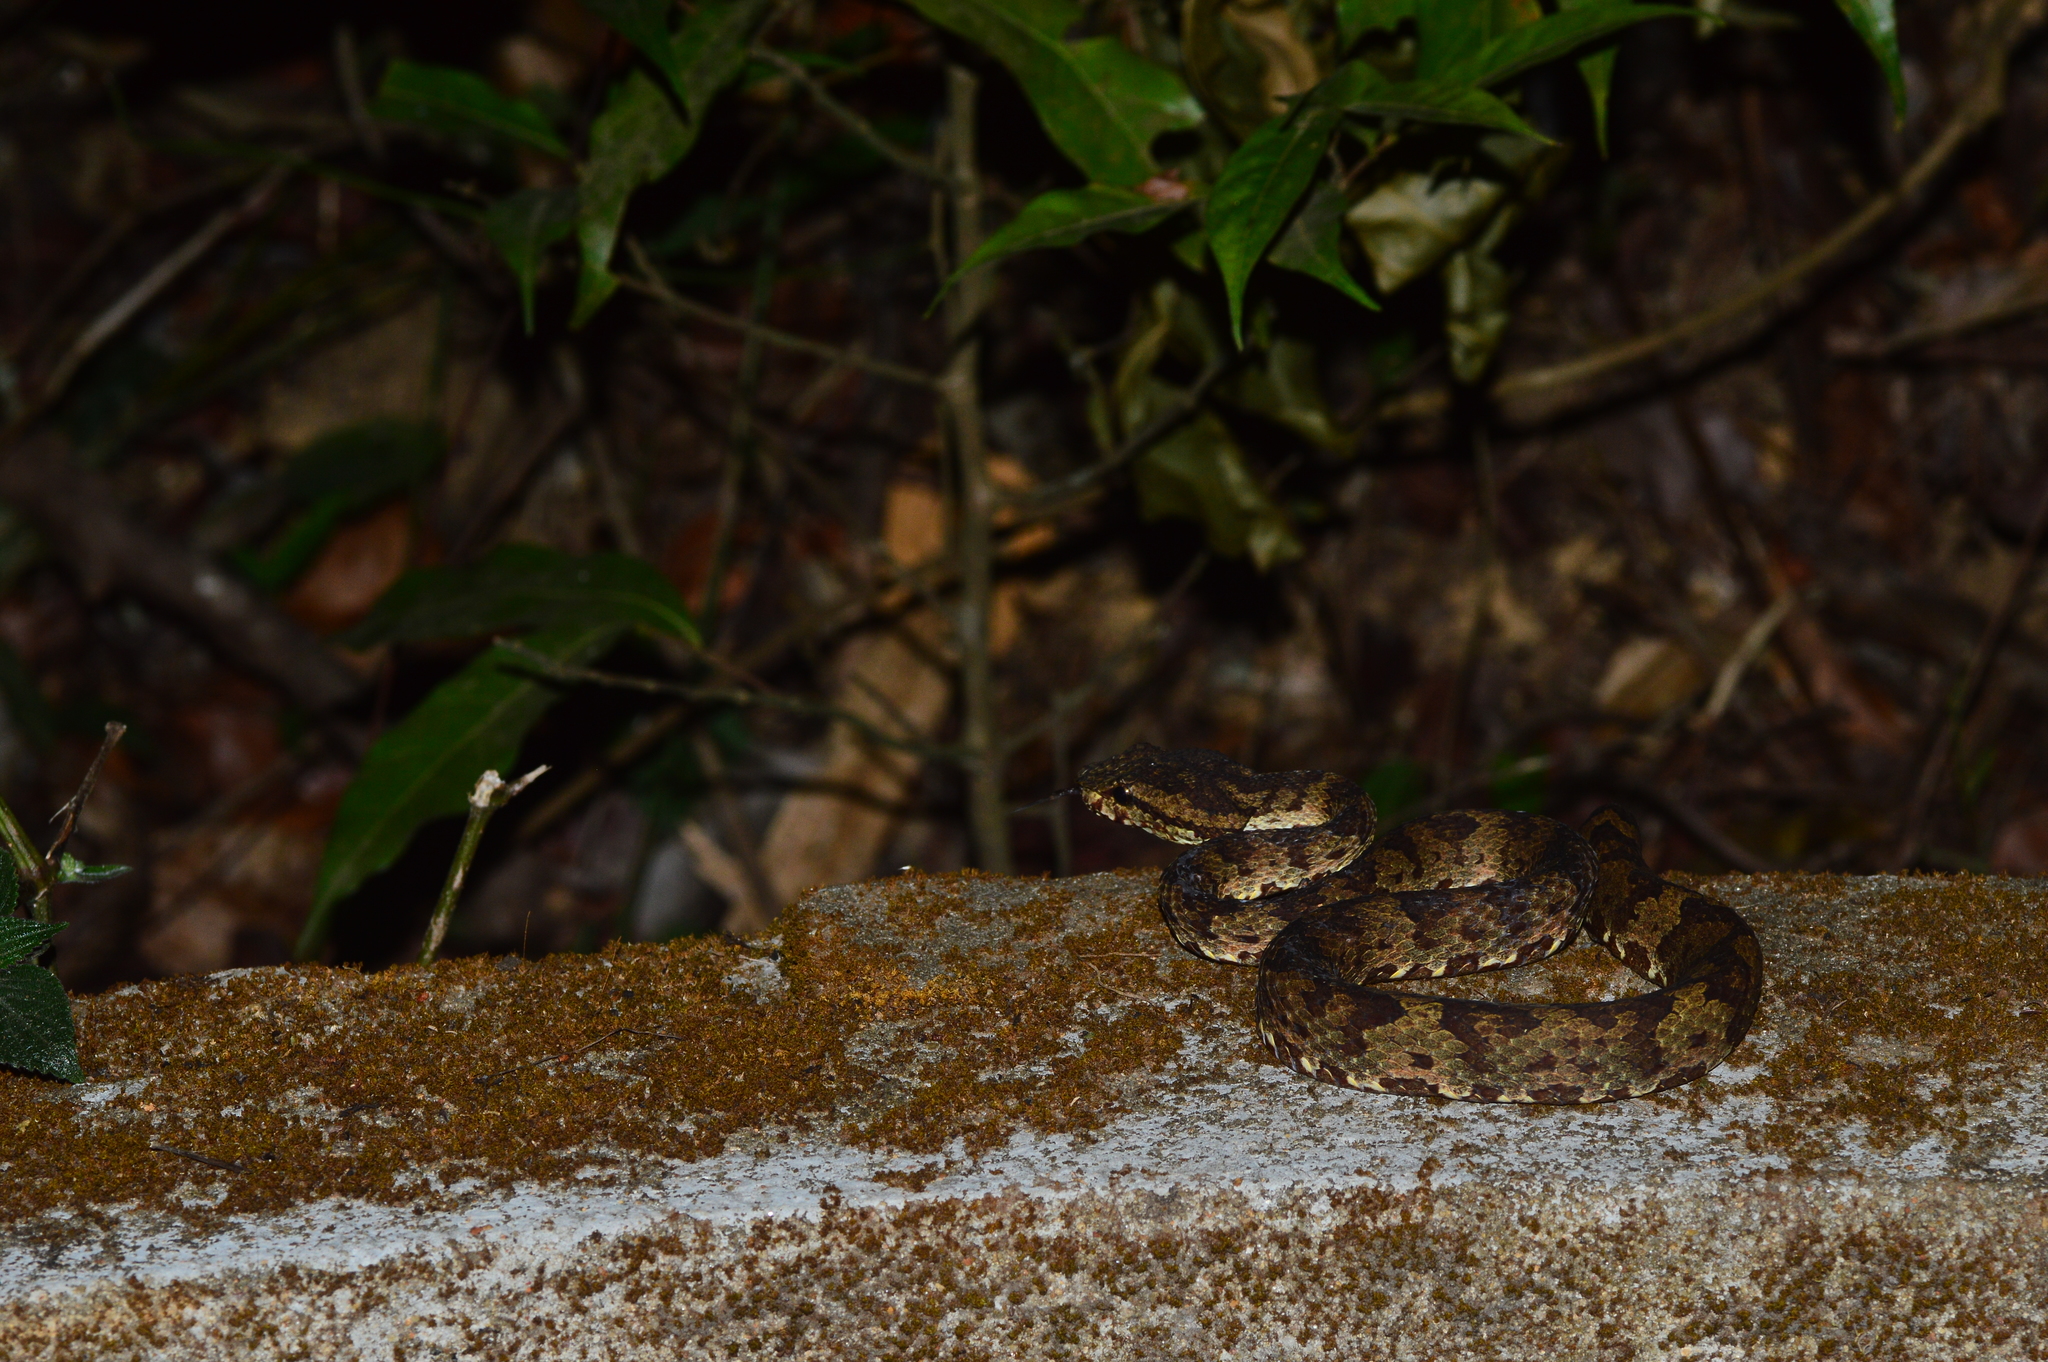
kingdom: Animalia
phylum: Chordata
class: Squamata
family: Viperidae
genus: Craspedocephalus
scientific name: Craspedocephalus malabaricus
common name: Malabarian pit viper
